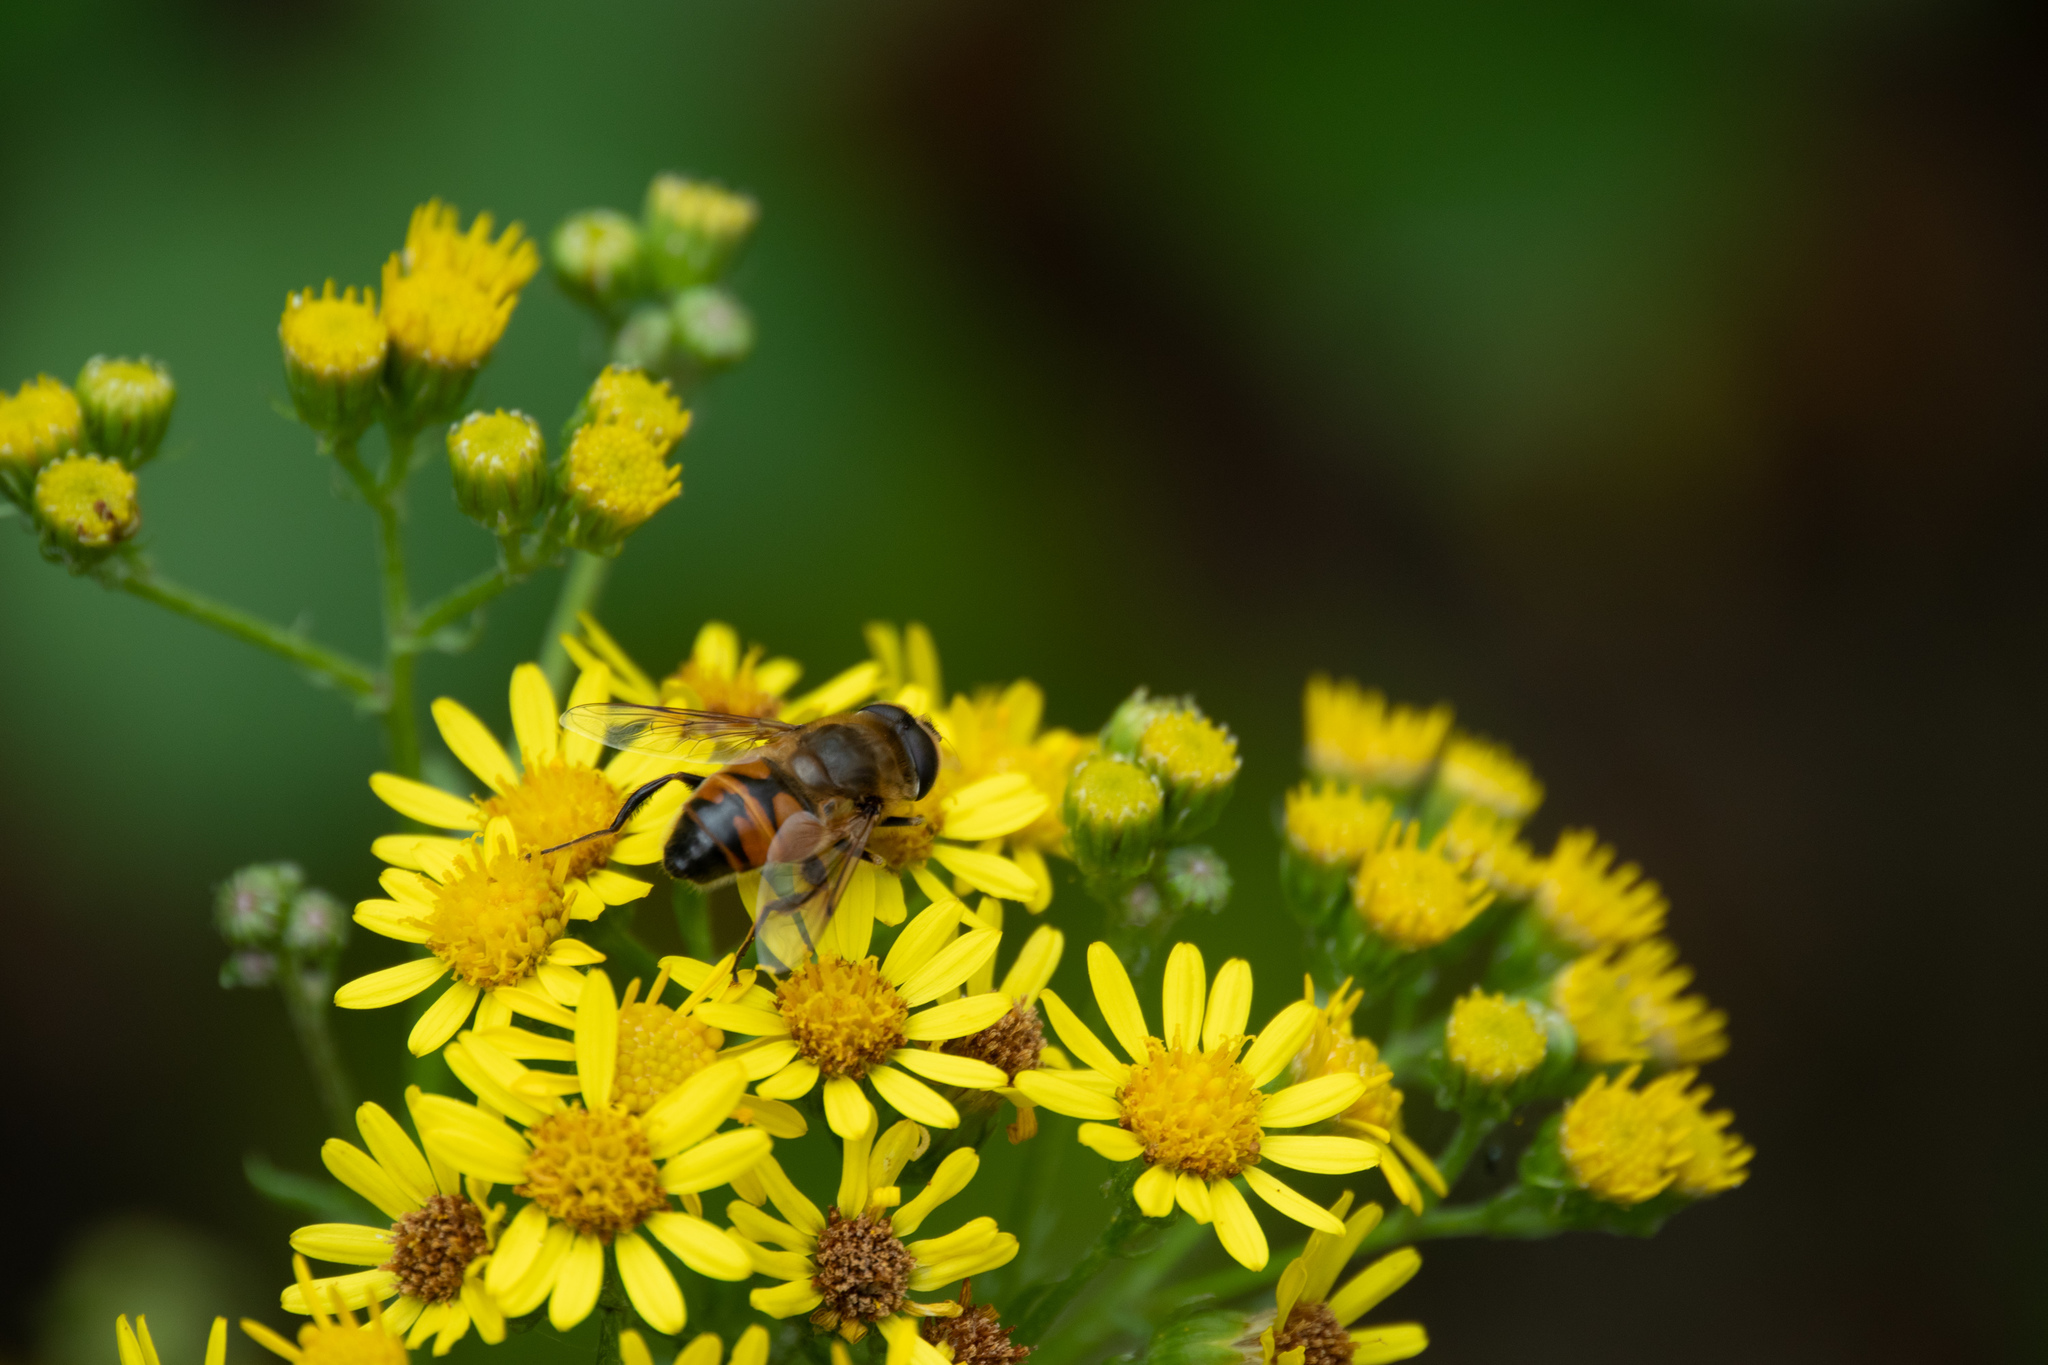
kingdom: Animalia
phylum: Arthropoda
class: Insecta
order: Diptera
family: Syrphidae
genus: Eristalis
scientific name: Eristalis tenax
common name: Drone fly
